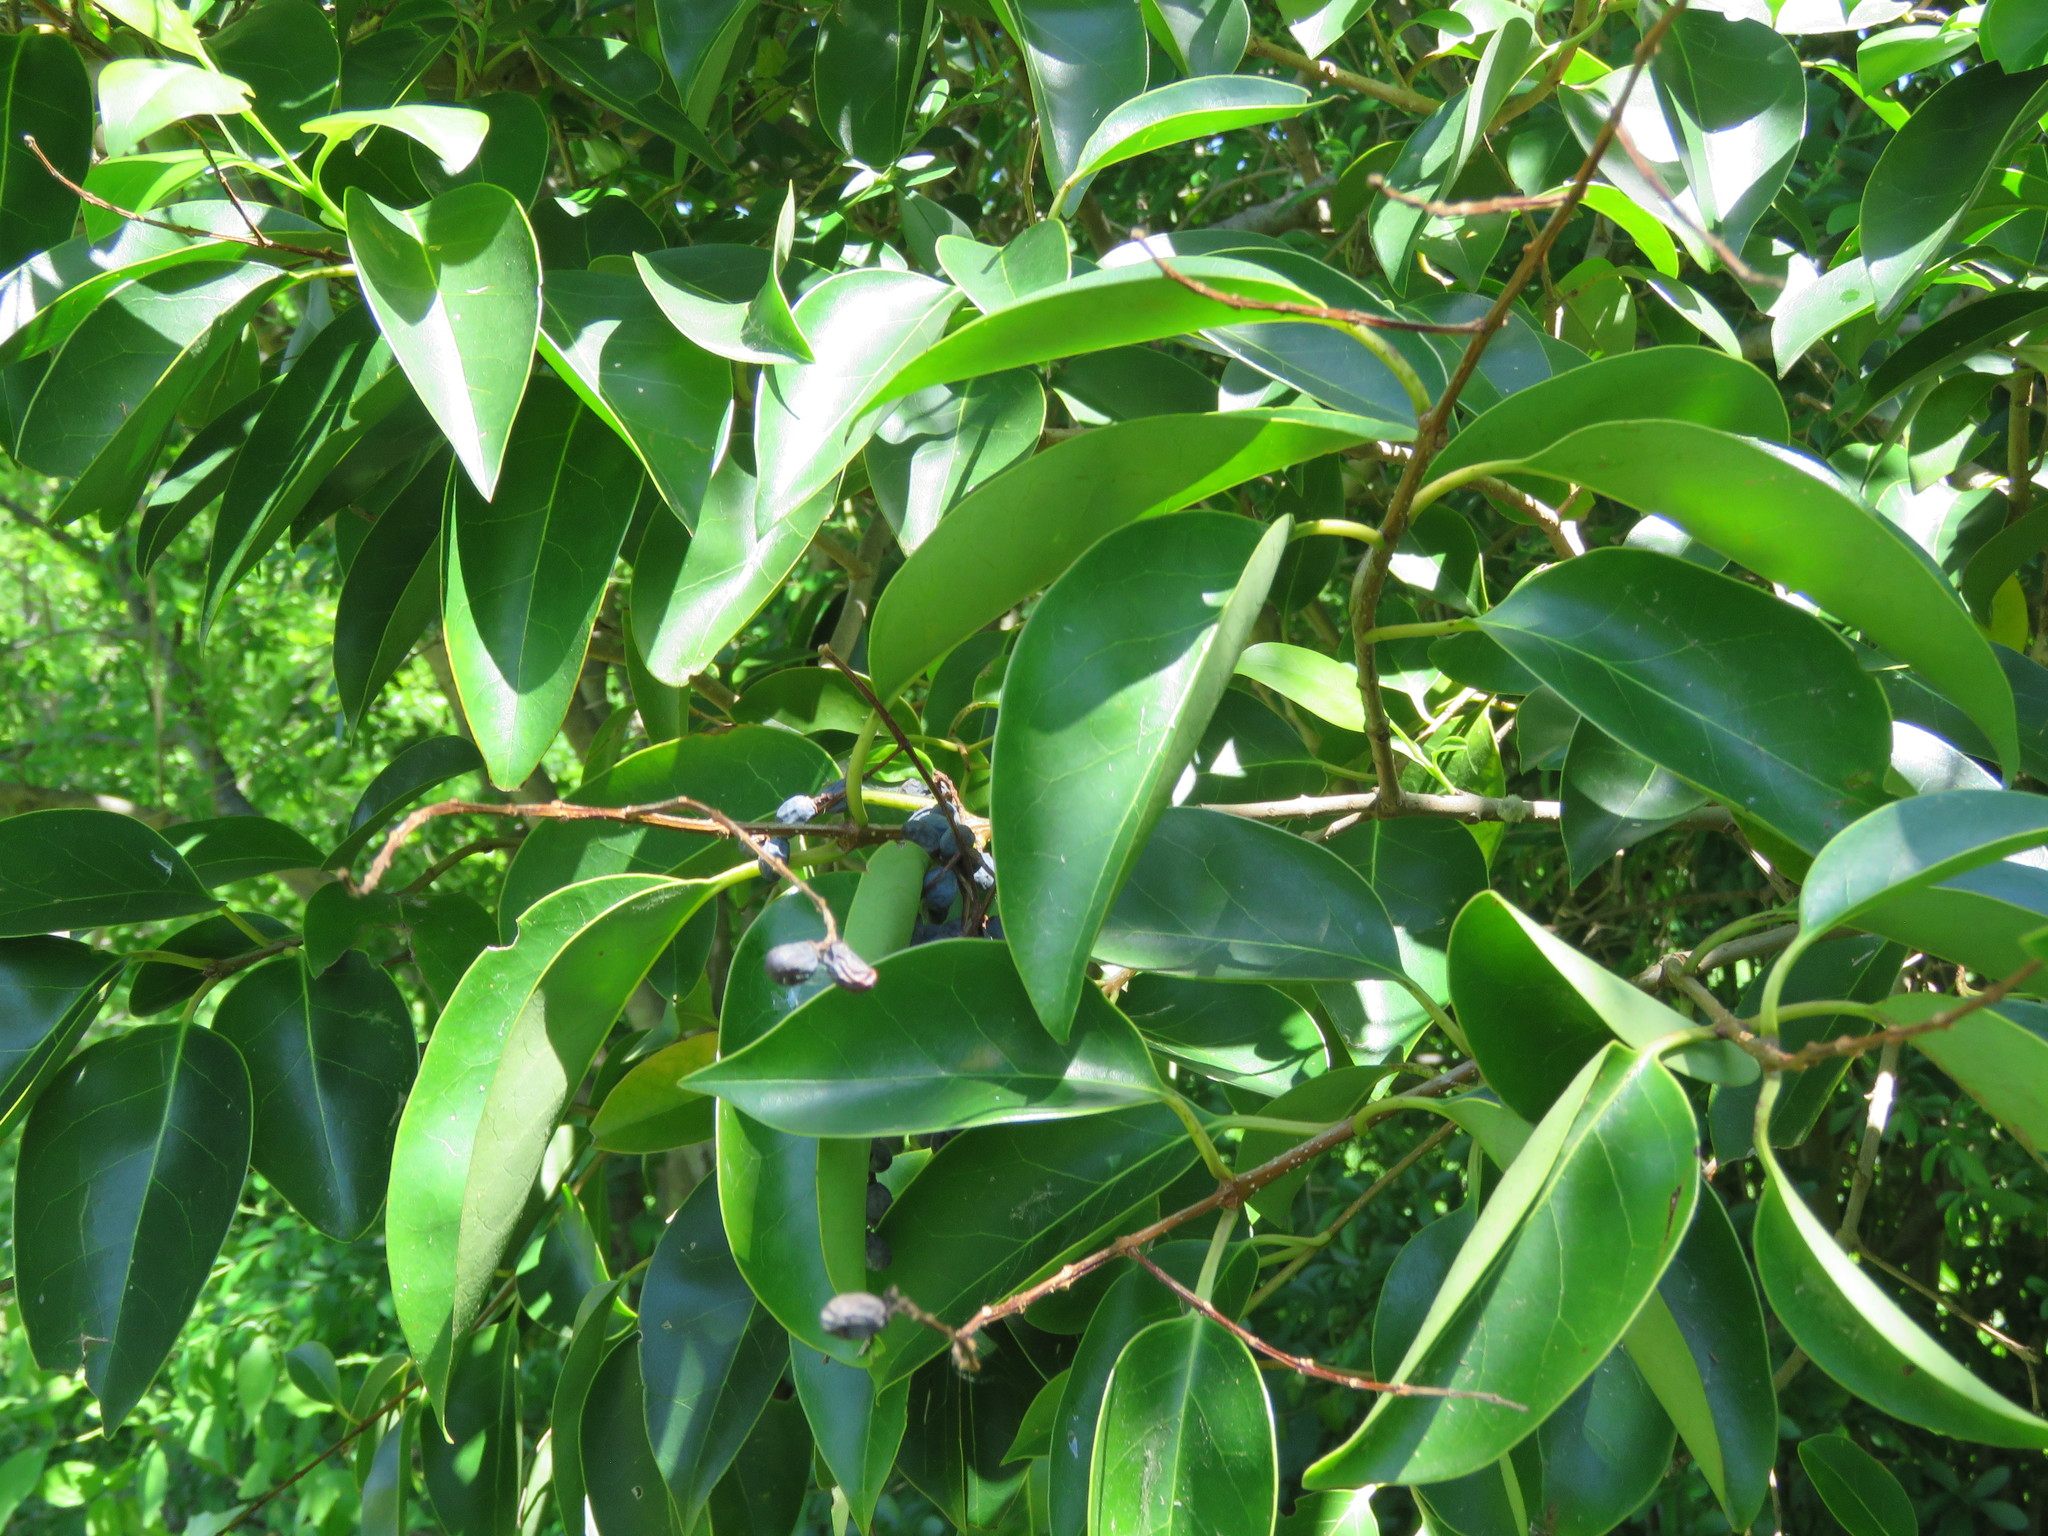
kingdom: Plantae
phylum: Tracheophyta
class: Magnoliopsida
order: Lamiales
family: Oleaceae
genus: Ligustrum
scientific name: Ligustrum lucidum
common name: Glossy privet
